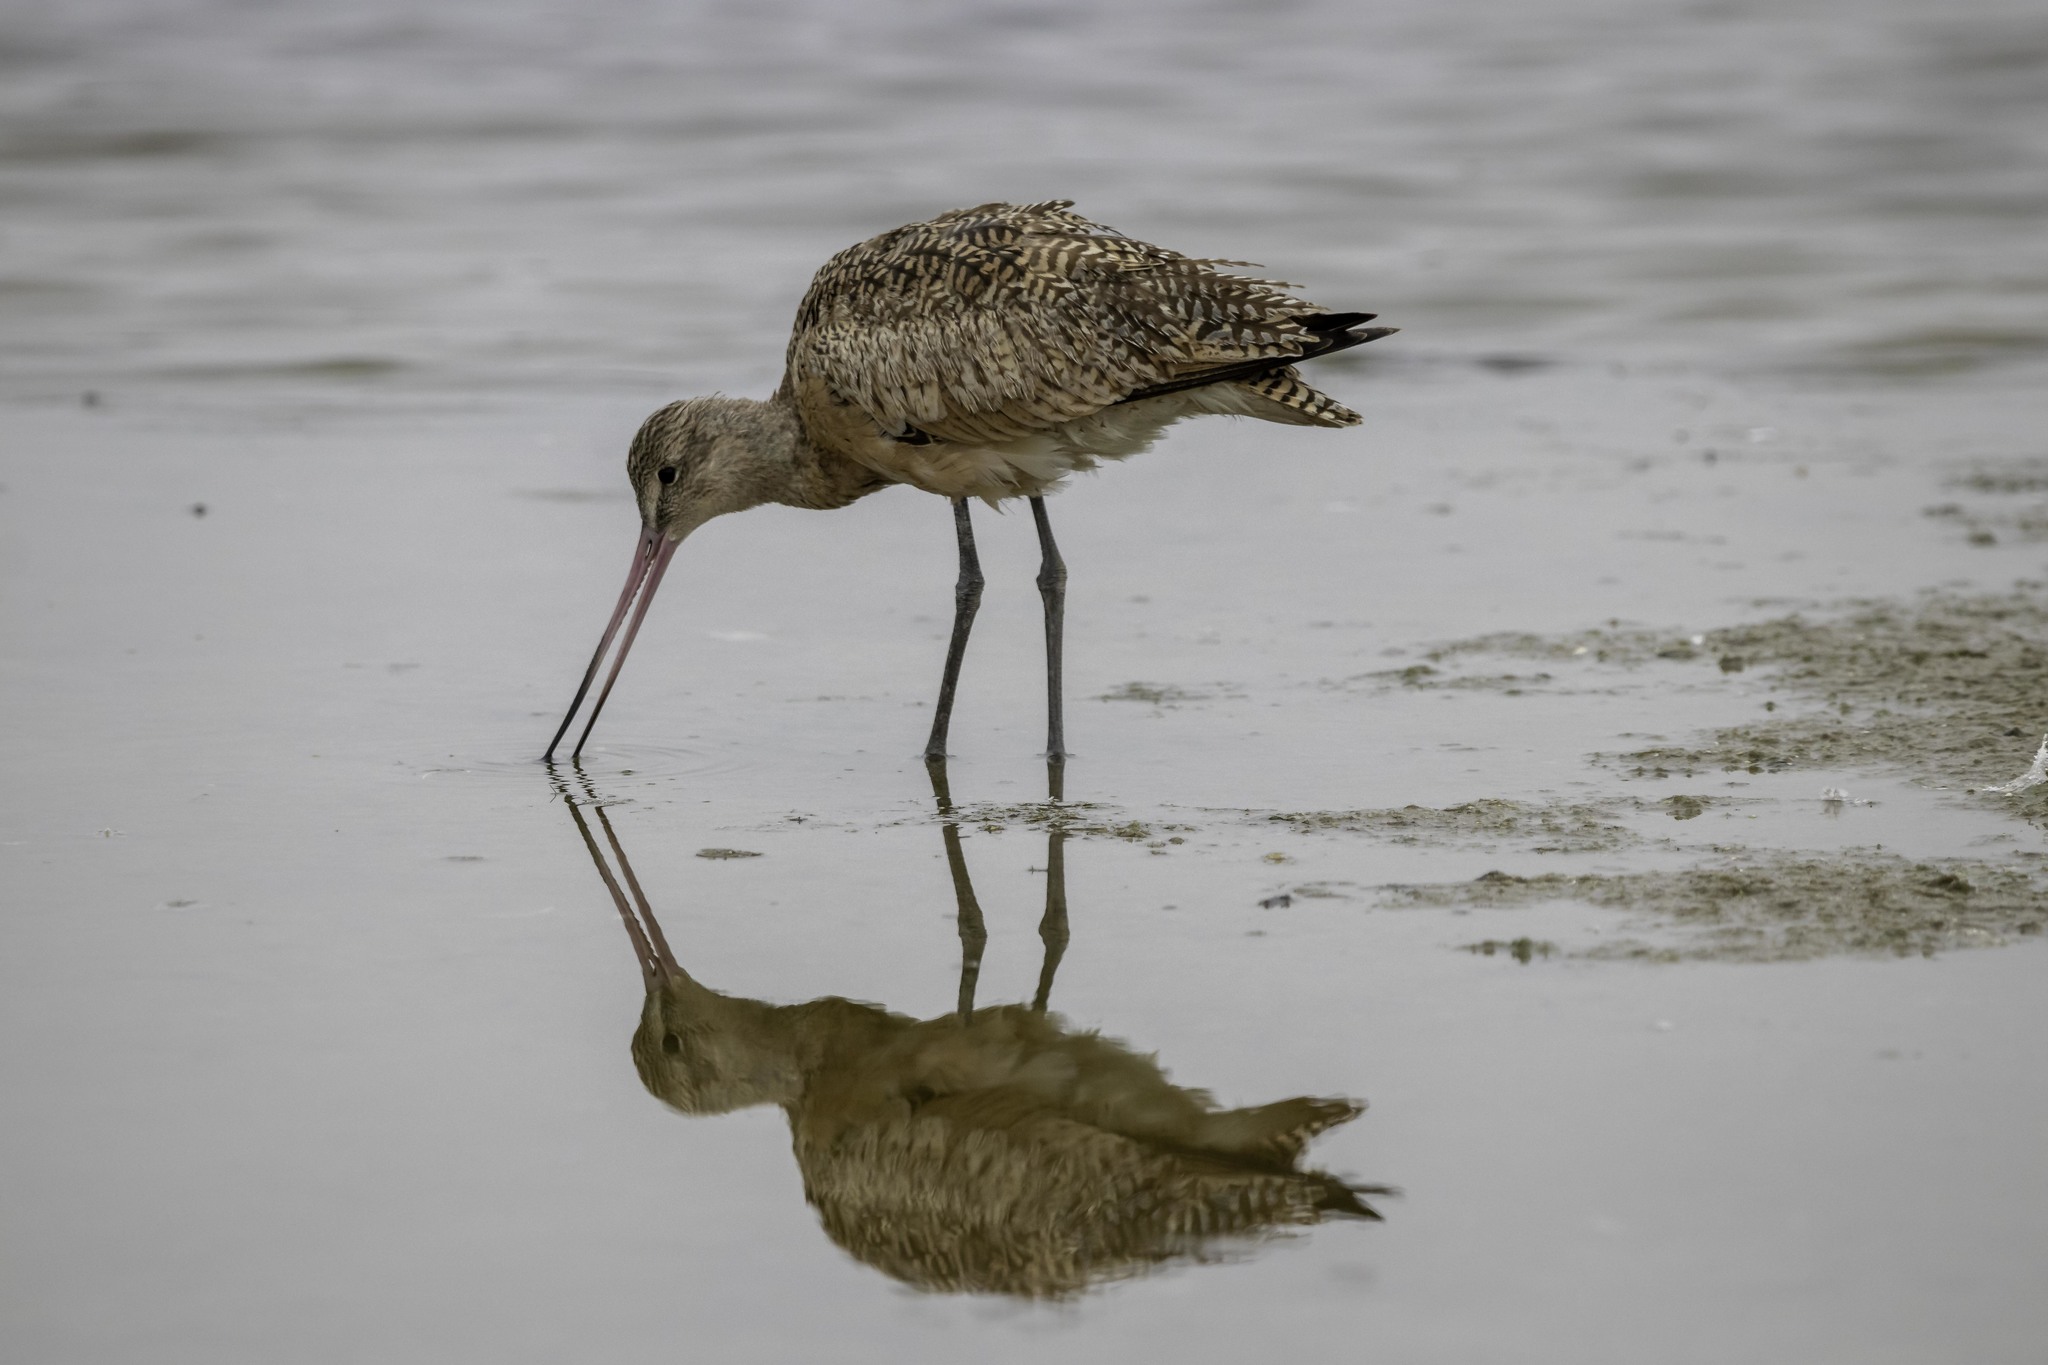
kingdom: Animalia
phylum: Chordata
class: Aves
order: Charadriiformes
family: Scolopacidae
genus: Limosa
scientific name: Limosa fedoa
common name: Marbled godwit
